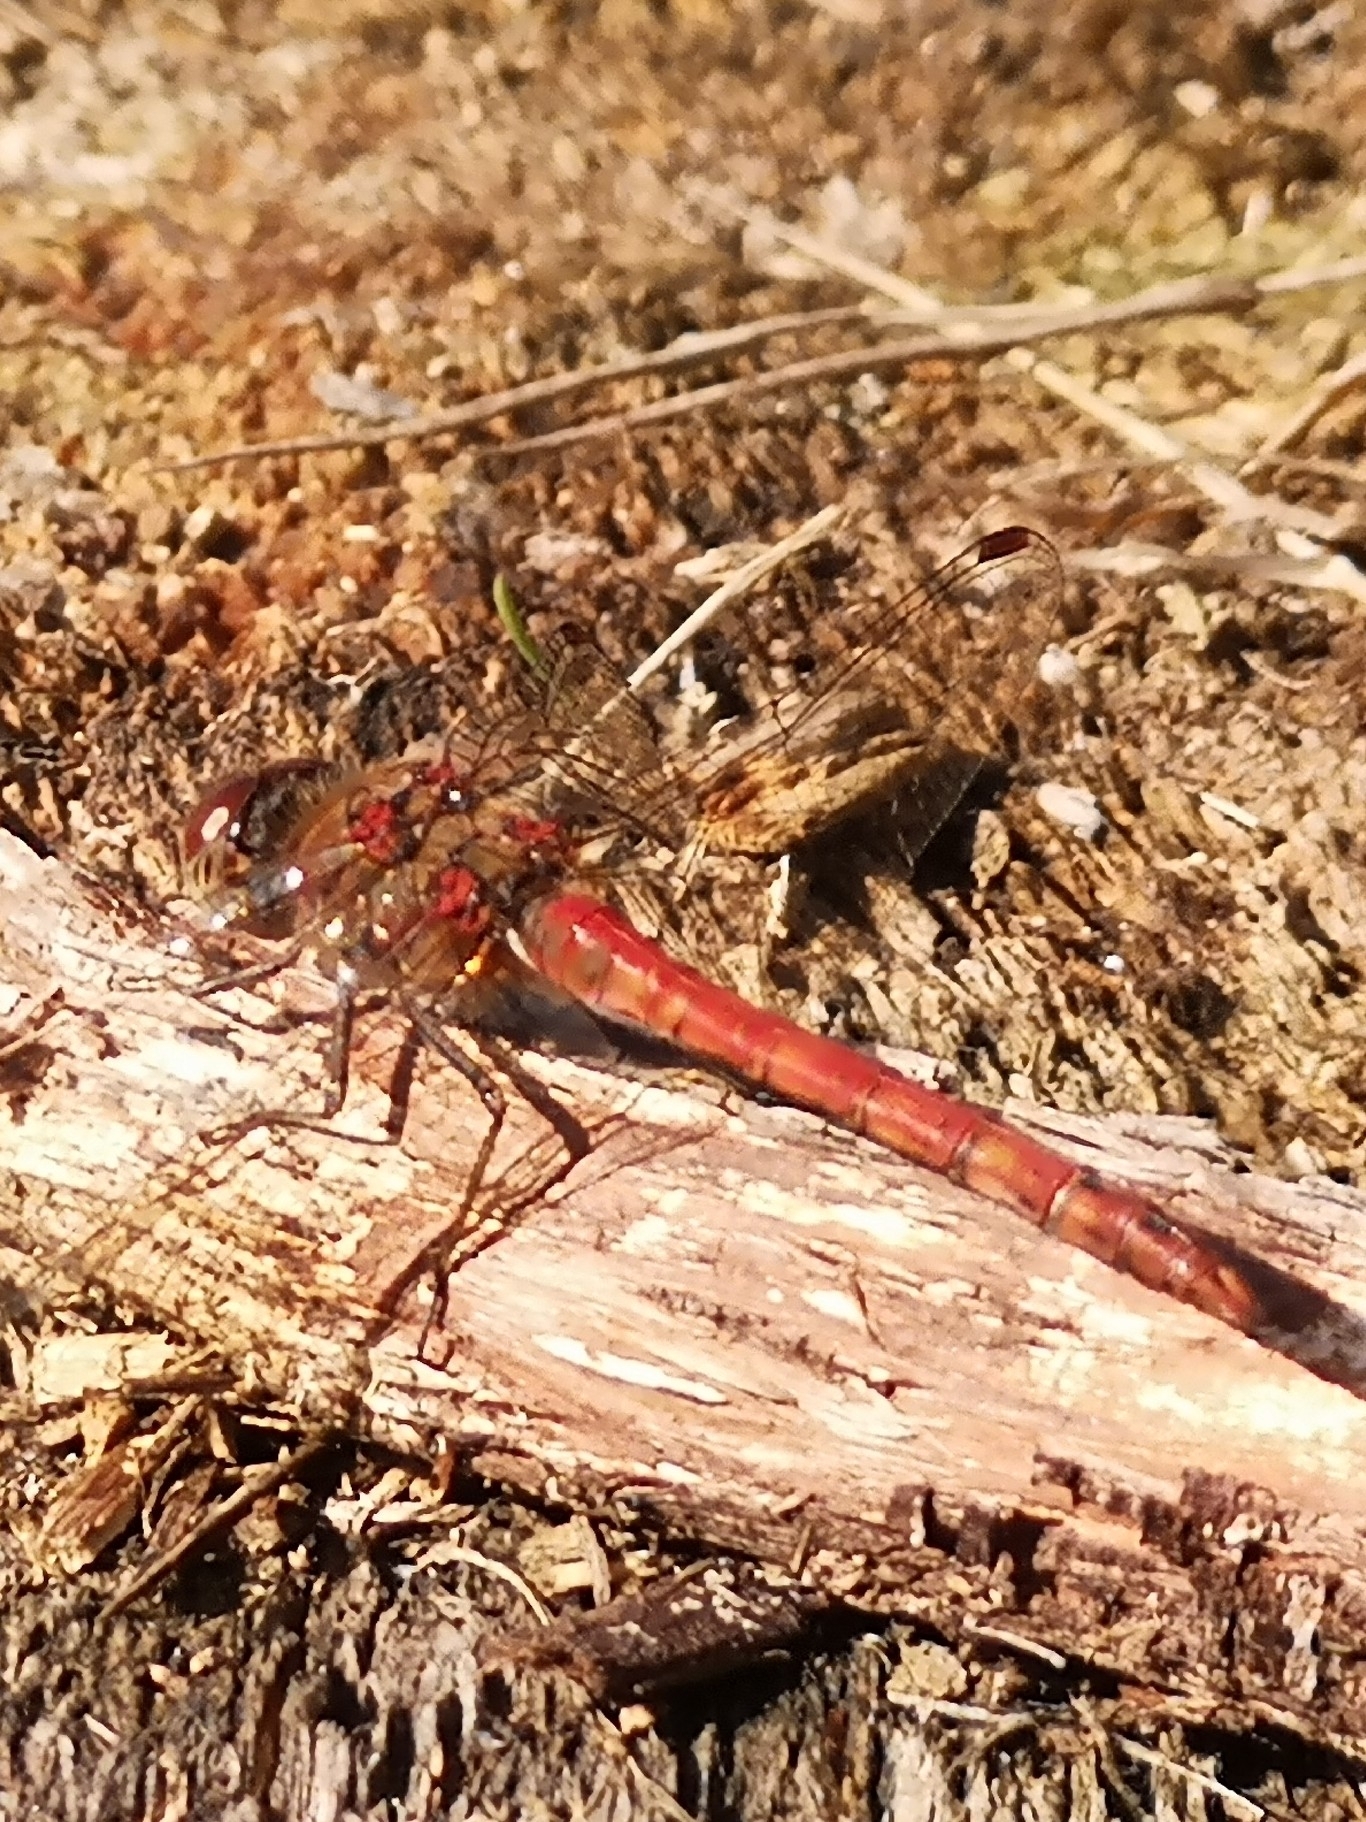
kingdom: Animalia
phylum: Arthropoda
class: Insecta
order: Odonata
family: Libellulidae
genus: Sympetrum
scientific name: Sympetrum striolatum
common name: Common darter
